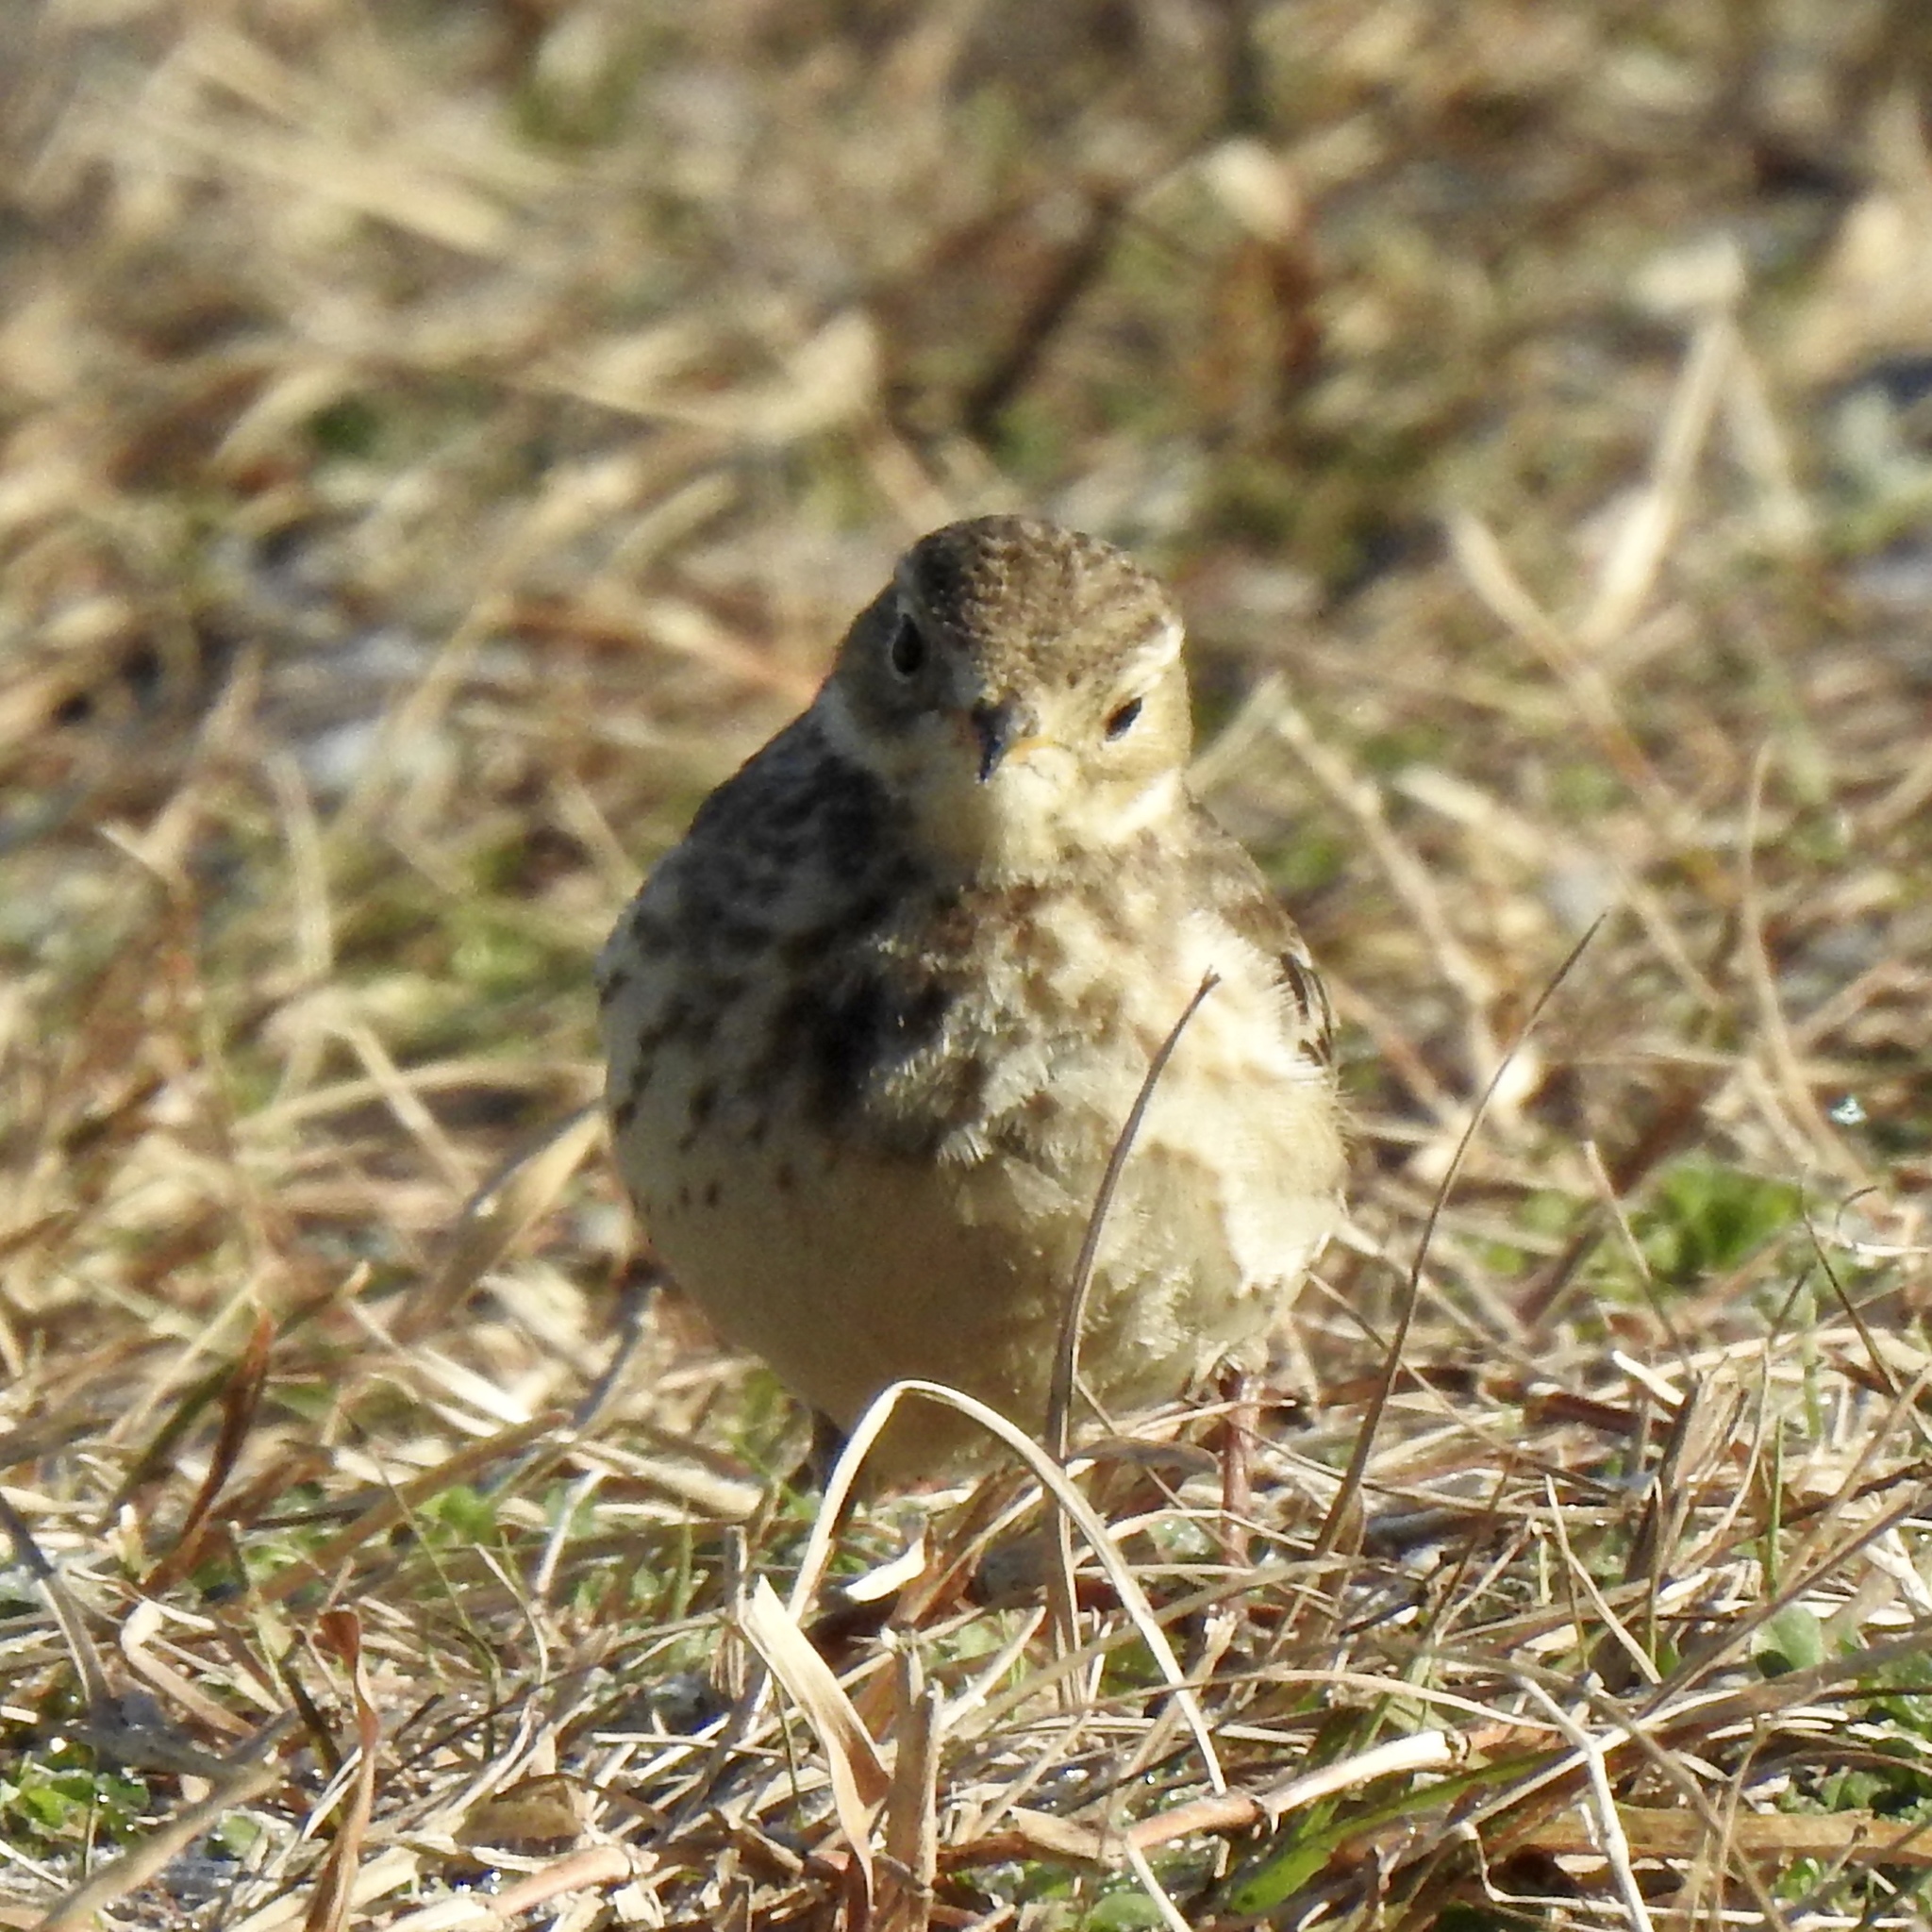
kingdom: Animalia
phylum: Chordata
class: Aves
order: Passeriformes
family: Motacillidae
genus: Anthus
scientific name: Anthus rubescens
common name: Buff-bellied pipit
